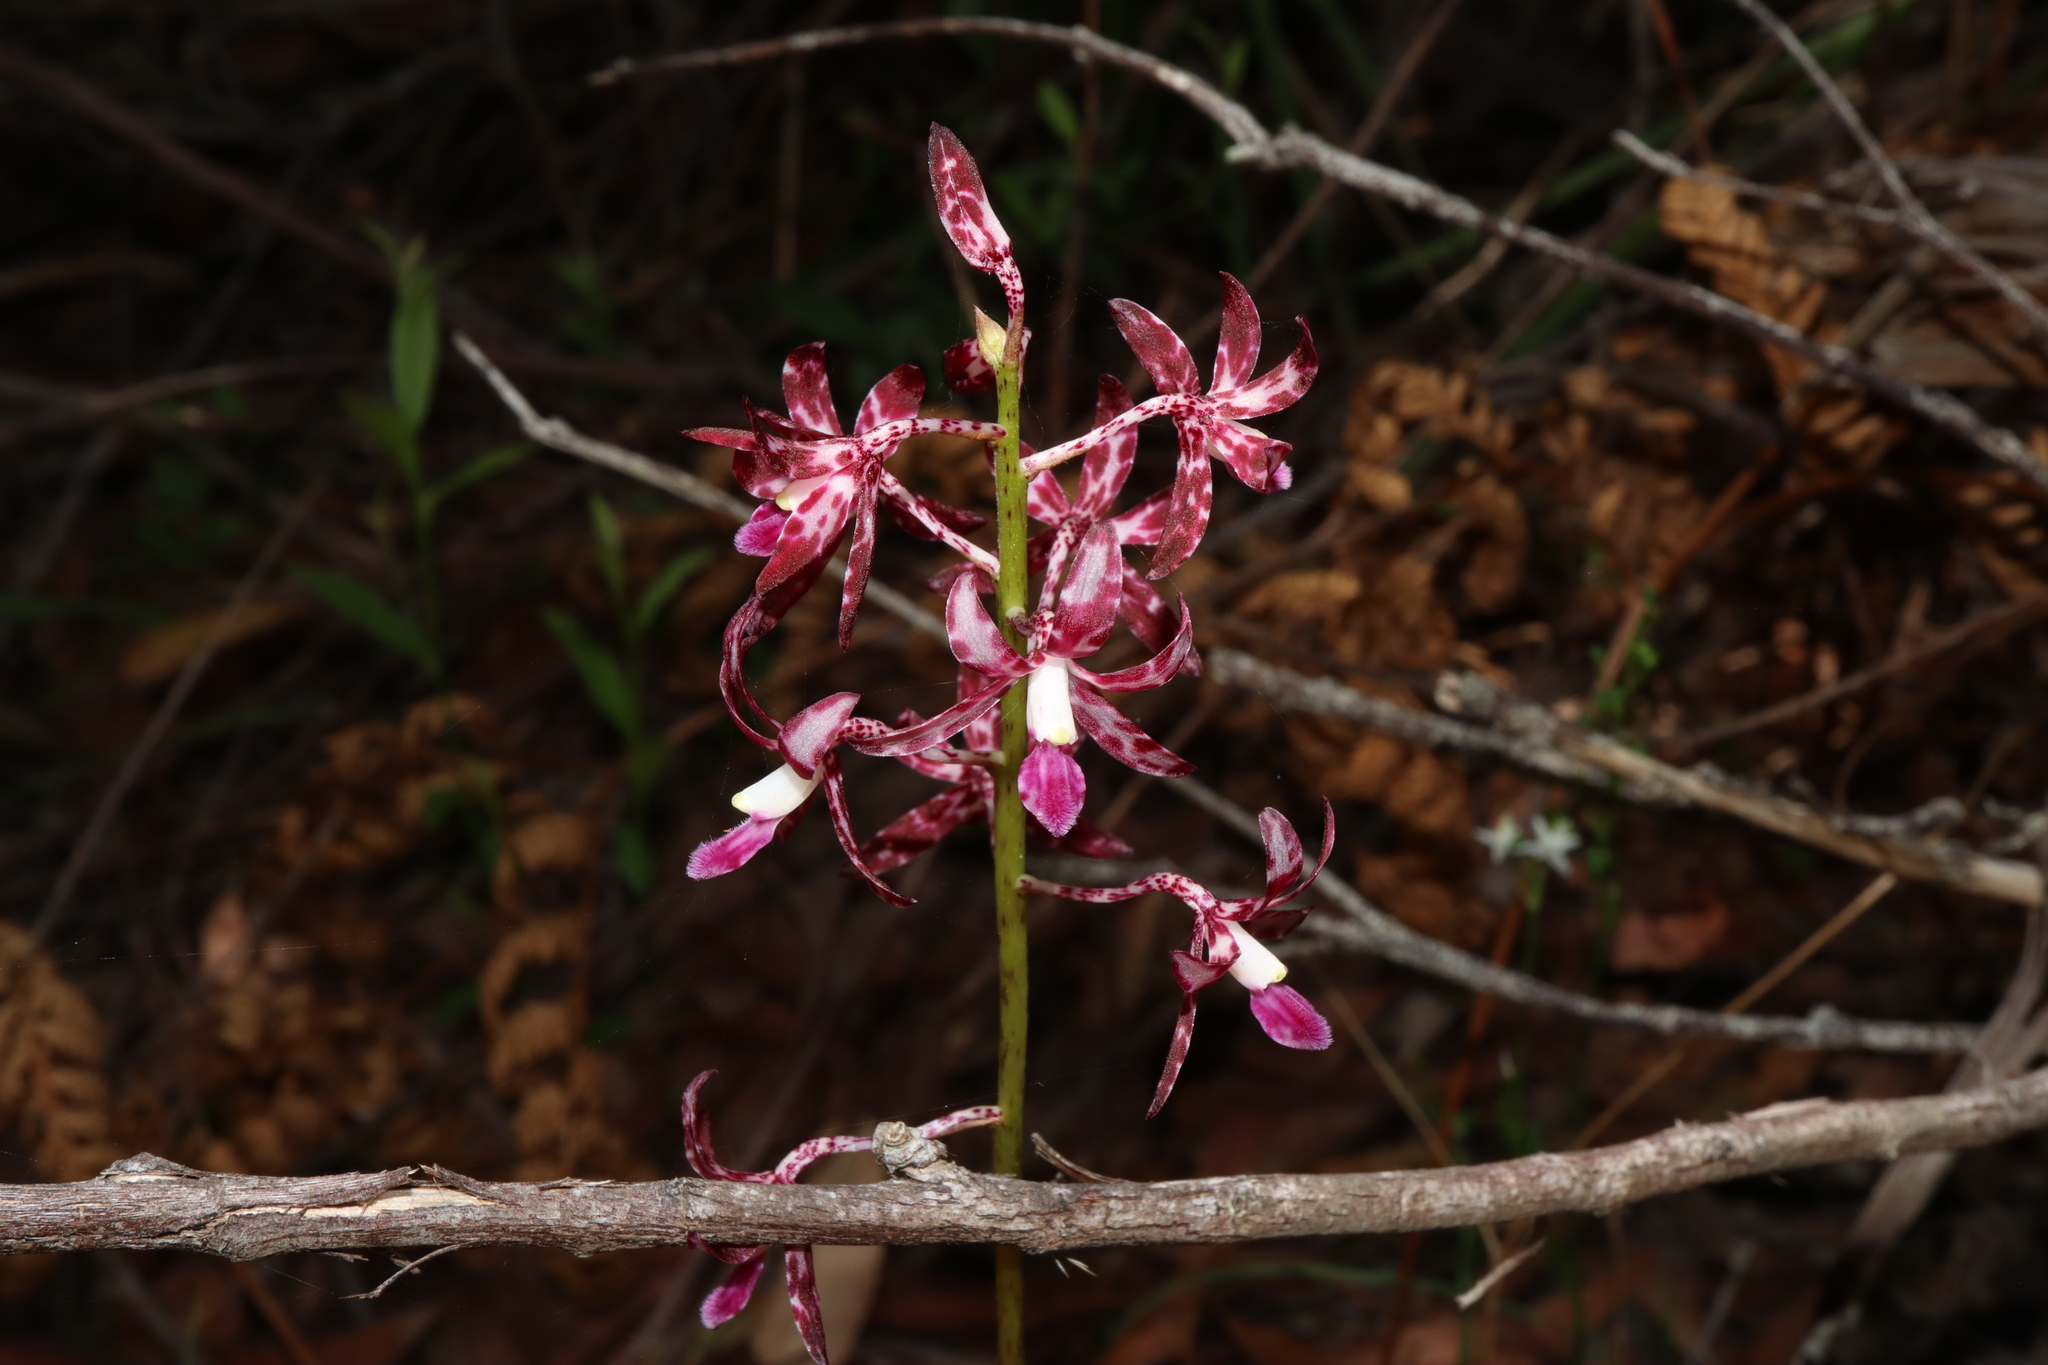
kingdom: Plantae
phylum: Tracheophyta
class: Liliopsida
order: Asparagales
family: Orchidaceae
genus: Dipodium
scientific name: Dipodium variegatum
